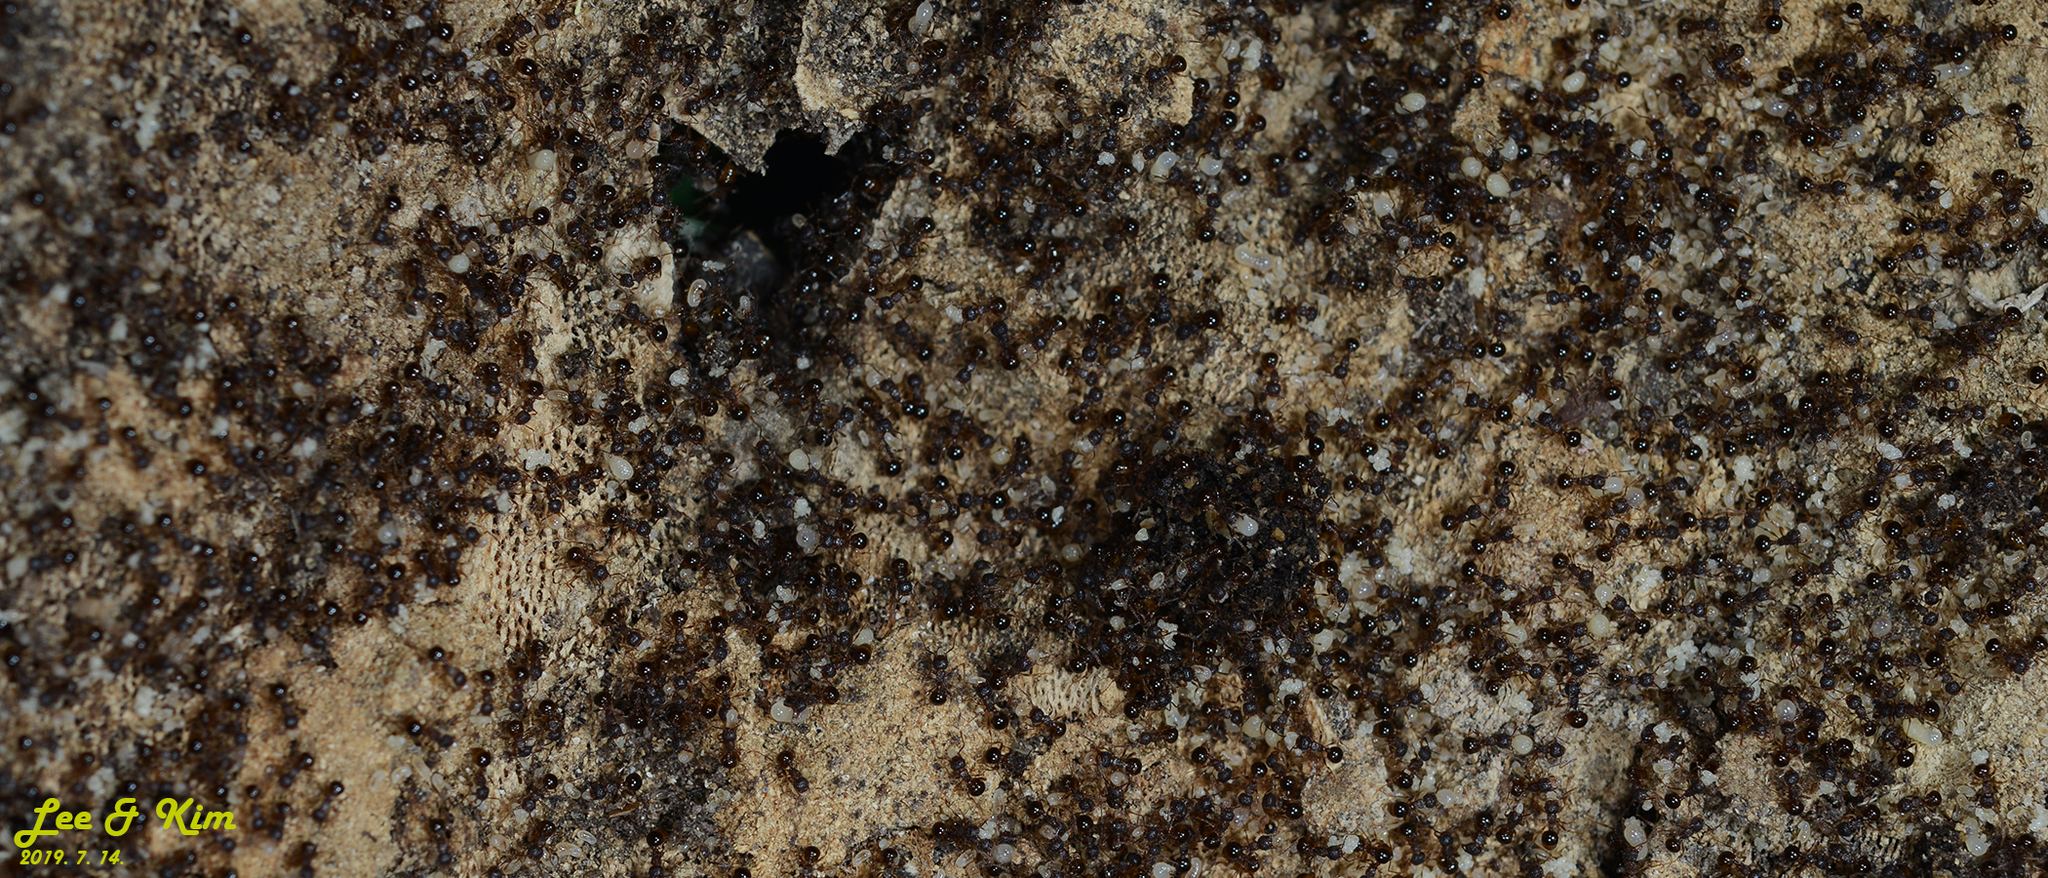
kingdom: Animalia
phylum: Arthropoda
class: Insecta
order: Hymenoptera
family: Formicidae
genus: Pristomyrmex
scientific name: Pristomyrmex punctatus
